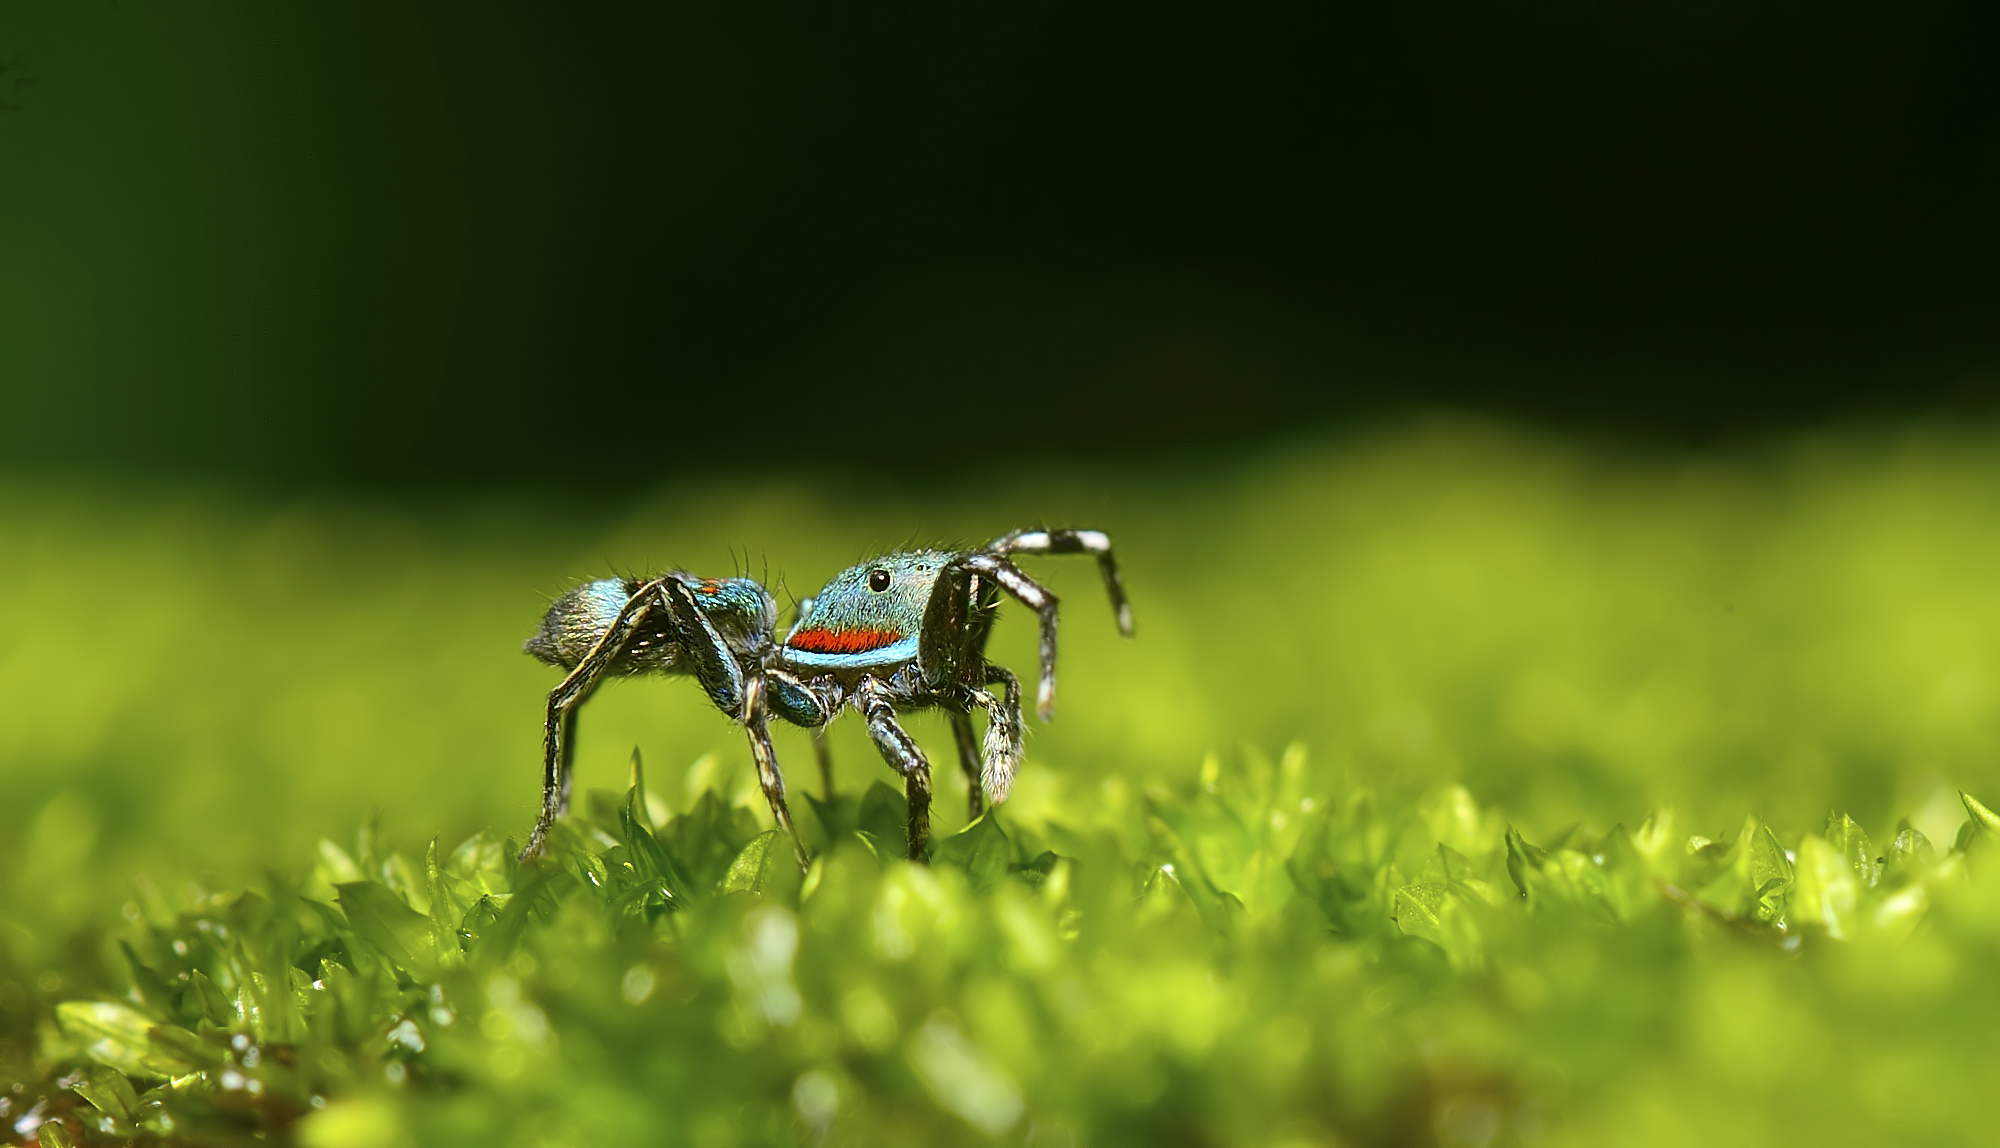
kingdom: Animalia
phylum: Arthropoda
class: Arachnida
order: Araneae
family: Salticidae
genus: Siler
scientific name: Siler semiglaucus
